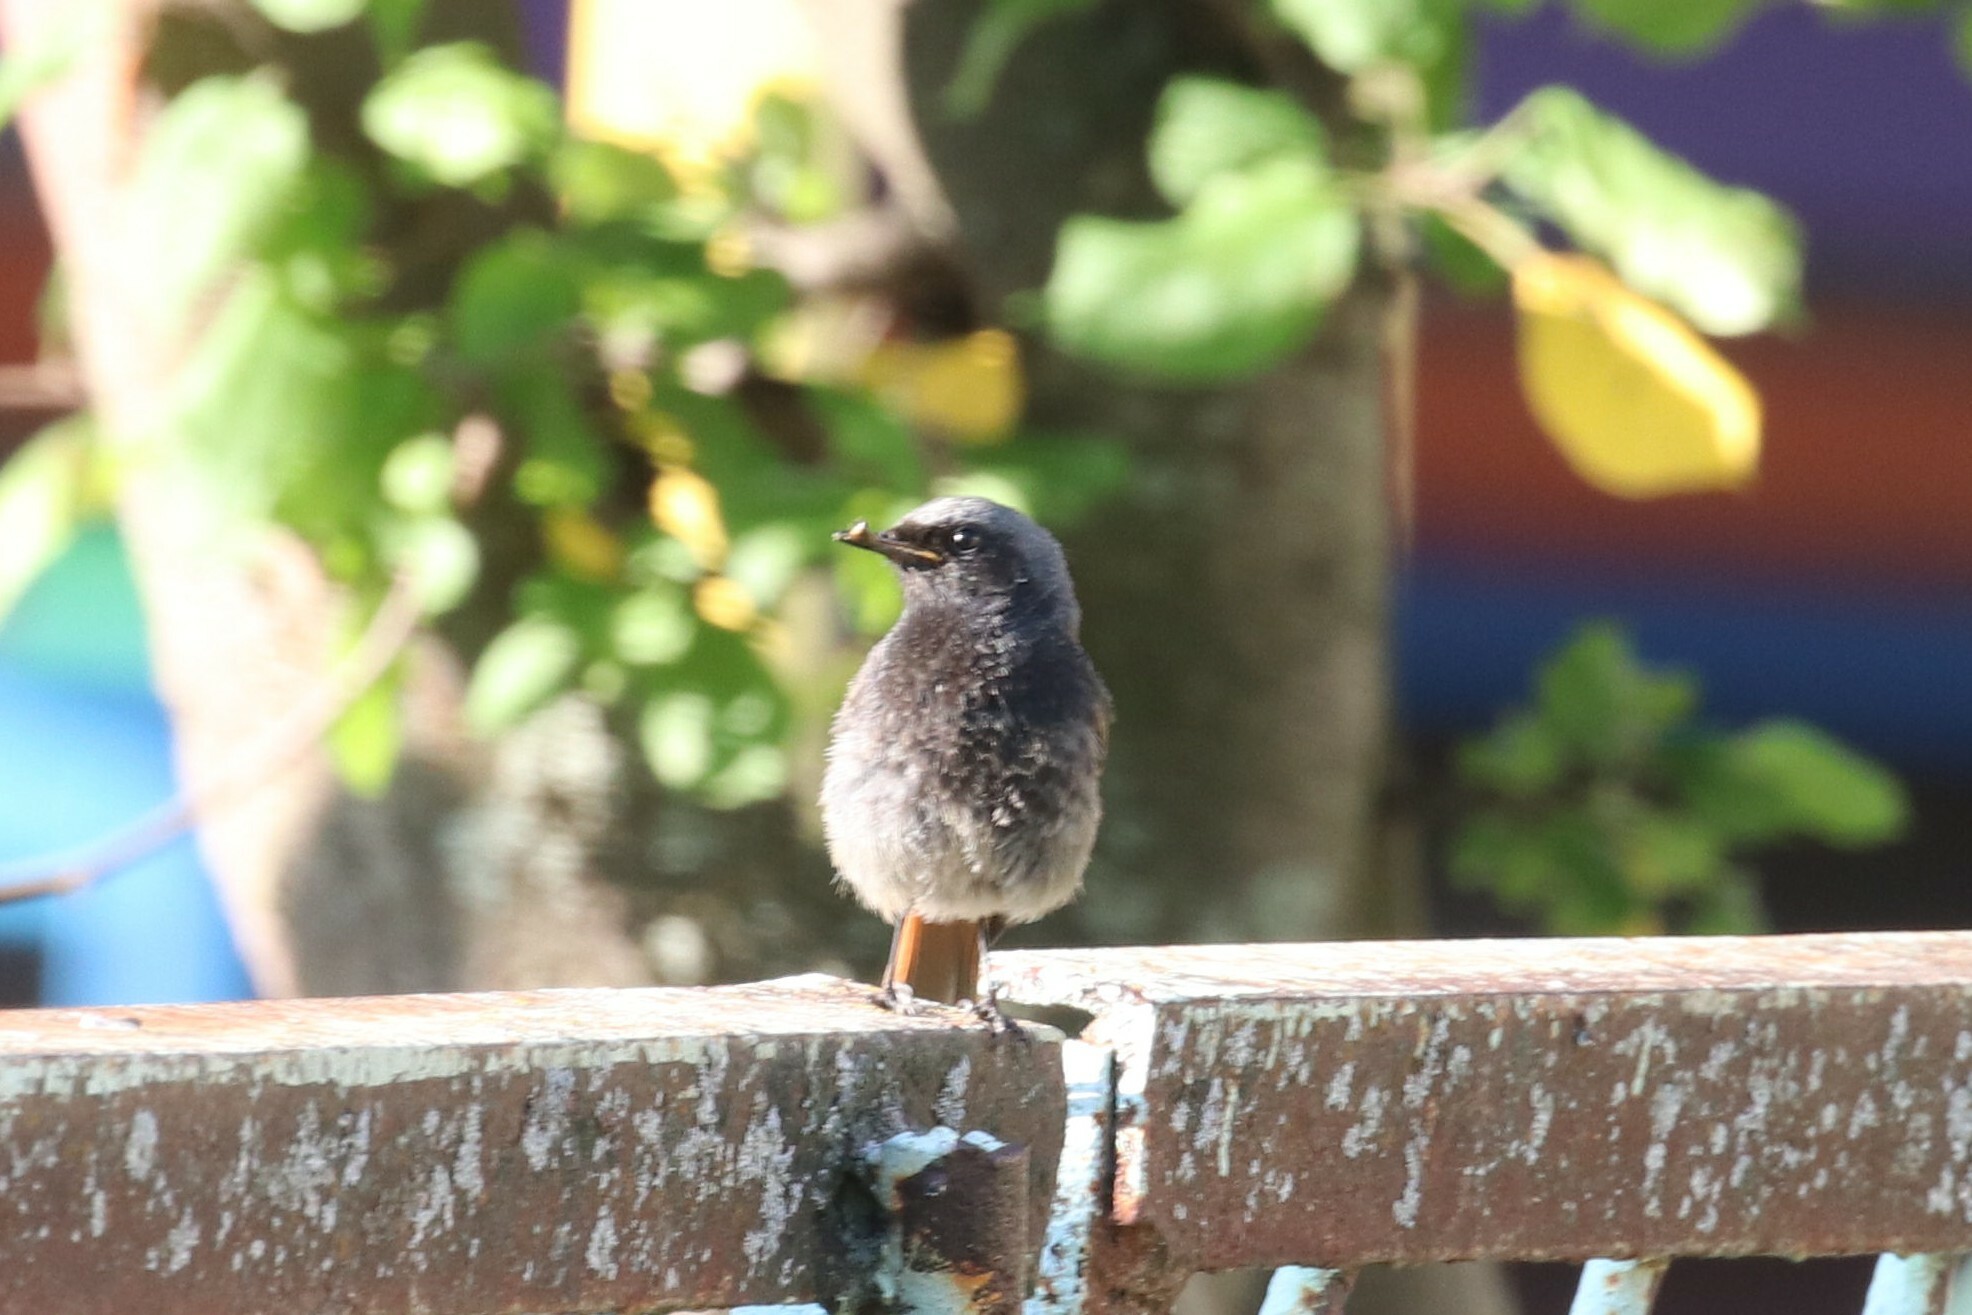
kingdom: Animalia
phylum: Chordata
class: Aves
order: Passeriformes
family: Muscicapidae
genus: Phoenicurus
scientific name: Phoenicurus ochruros
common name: Black redstart
